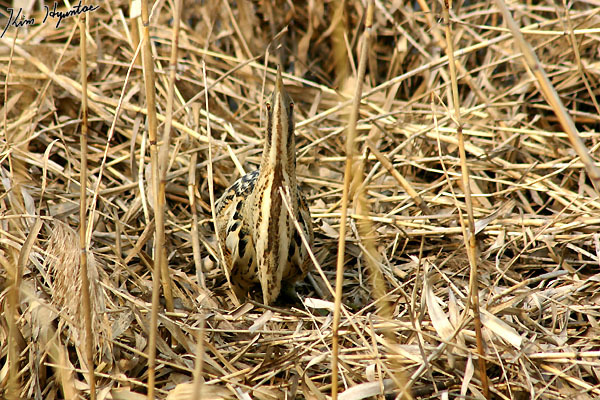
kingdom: Animalia
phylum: Chordata
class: Aves
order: Pelecaniformes
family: Ardeidae
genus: Botaurus
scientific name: Botaurus stellaris
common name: Eurasian bittern
